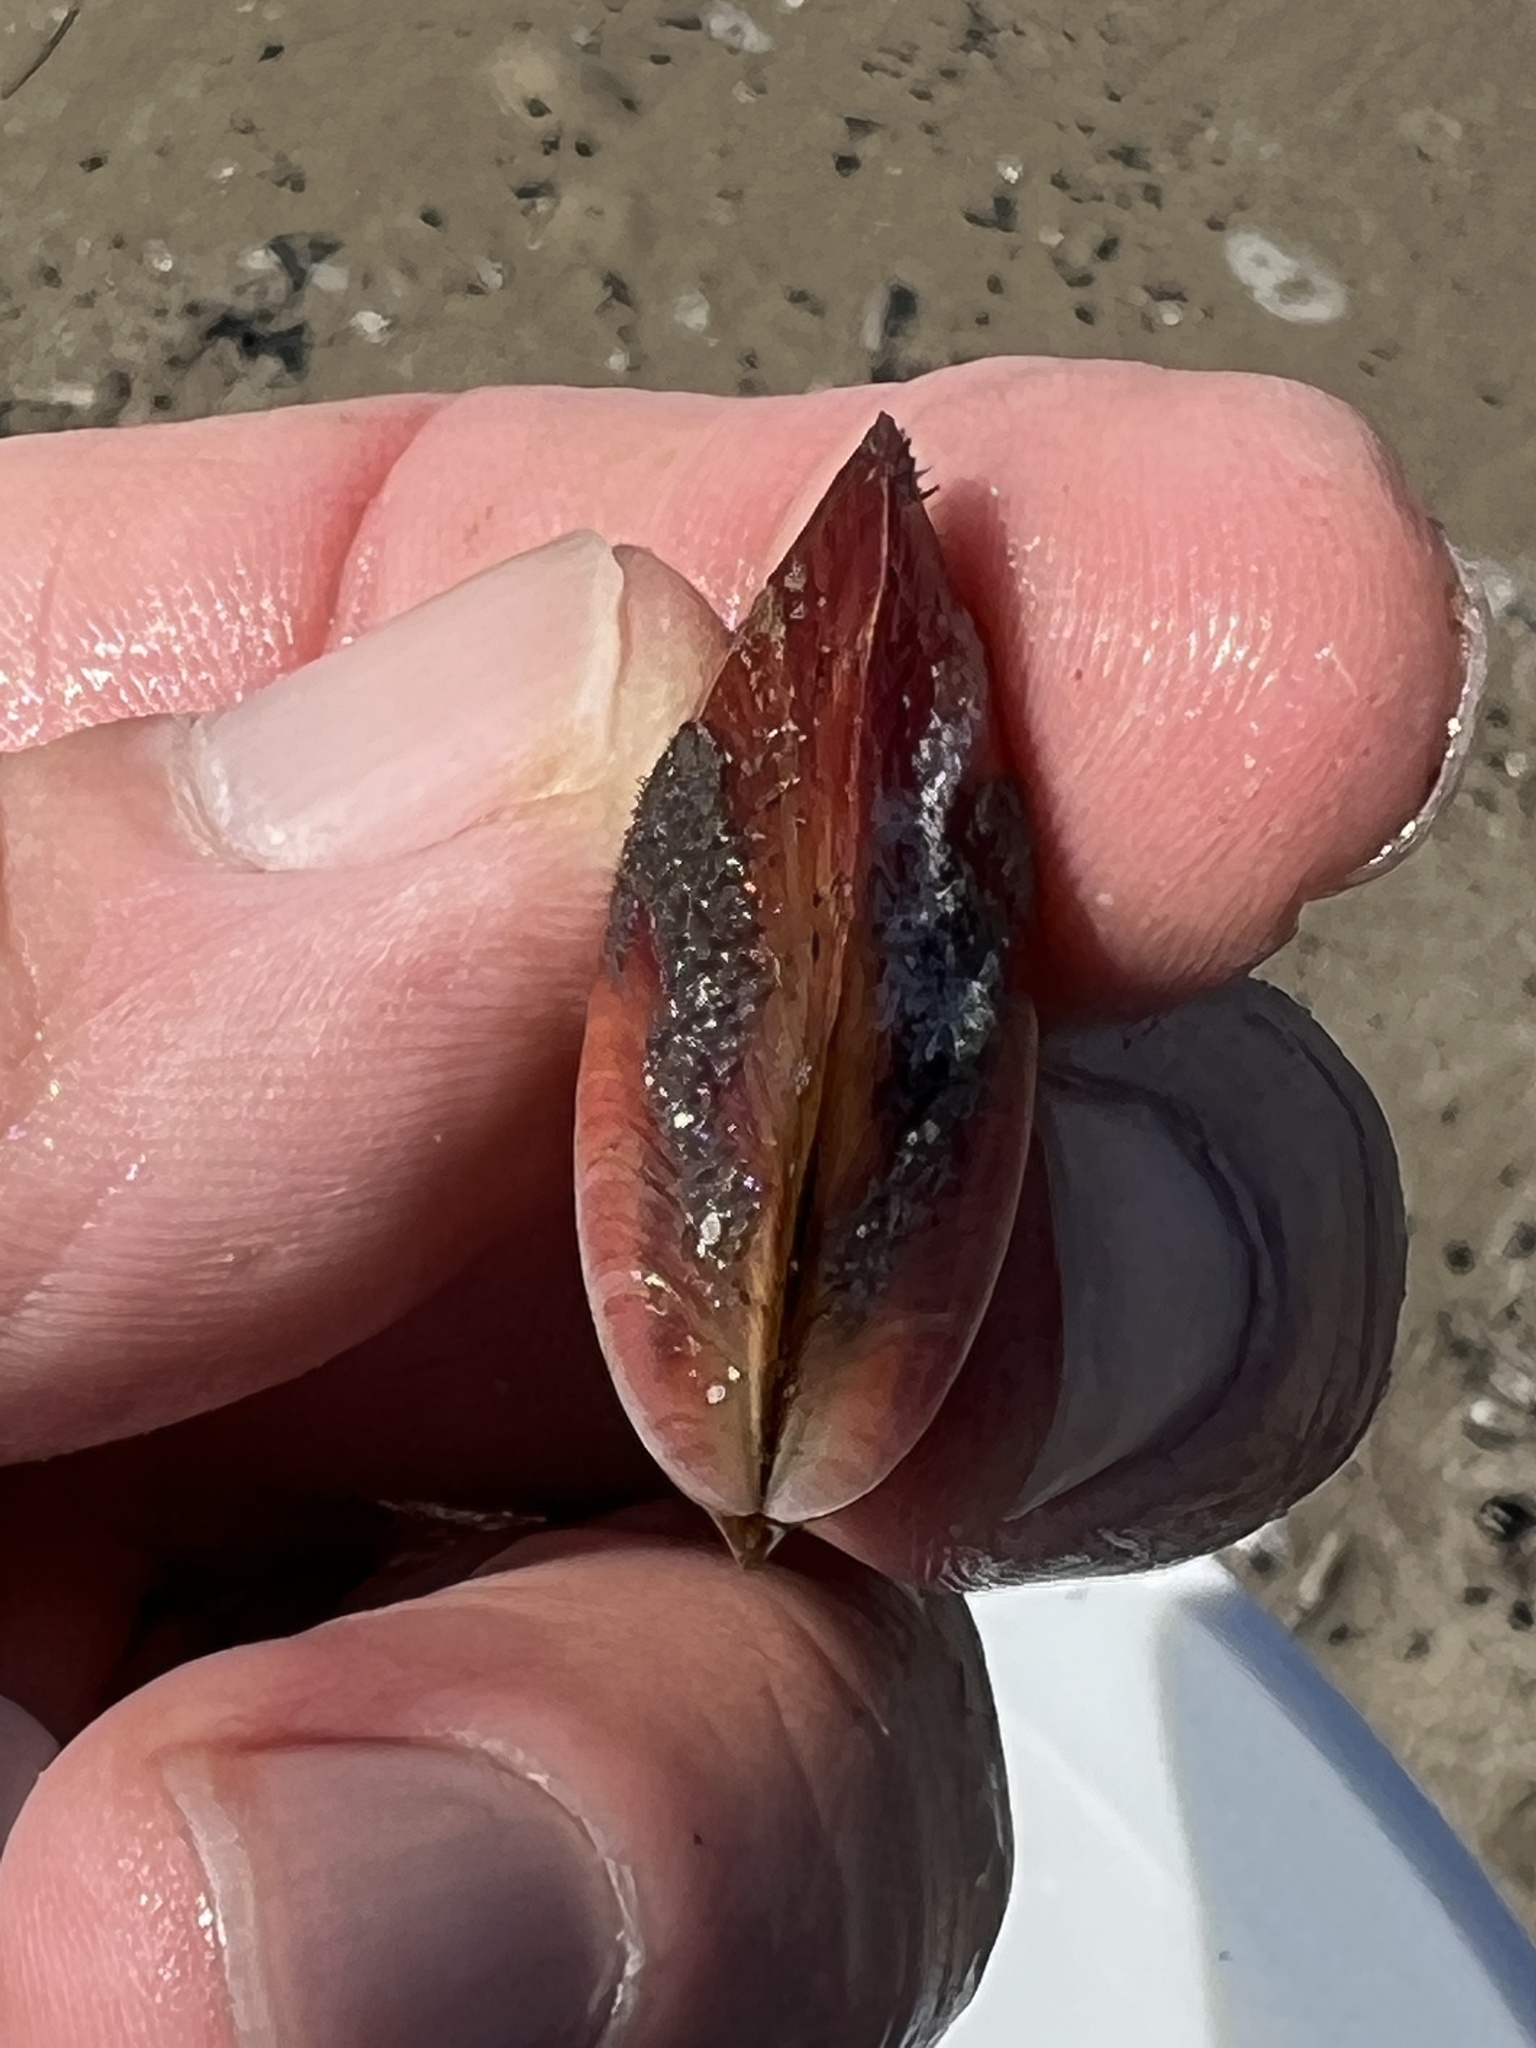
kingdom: Animalia
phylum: Mollusca
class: Bivalvia
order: Mytilida
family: Mytilidae
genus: Modiolus
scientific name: Modiolus americanus
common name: Tulip mussel
